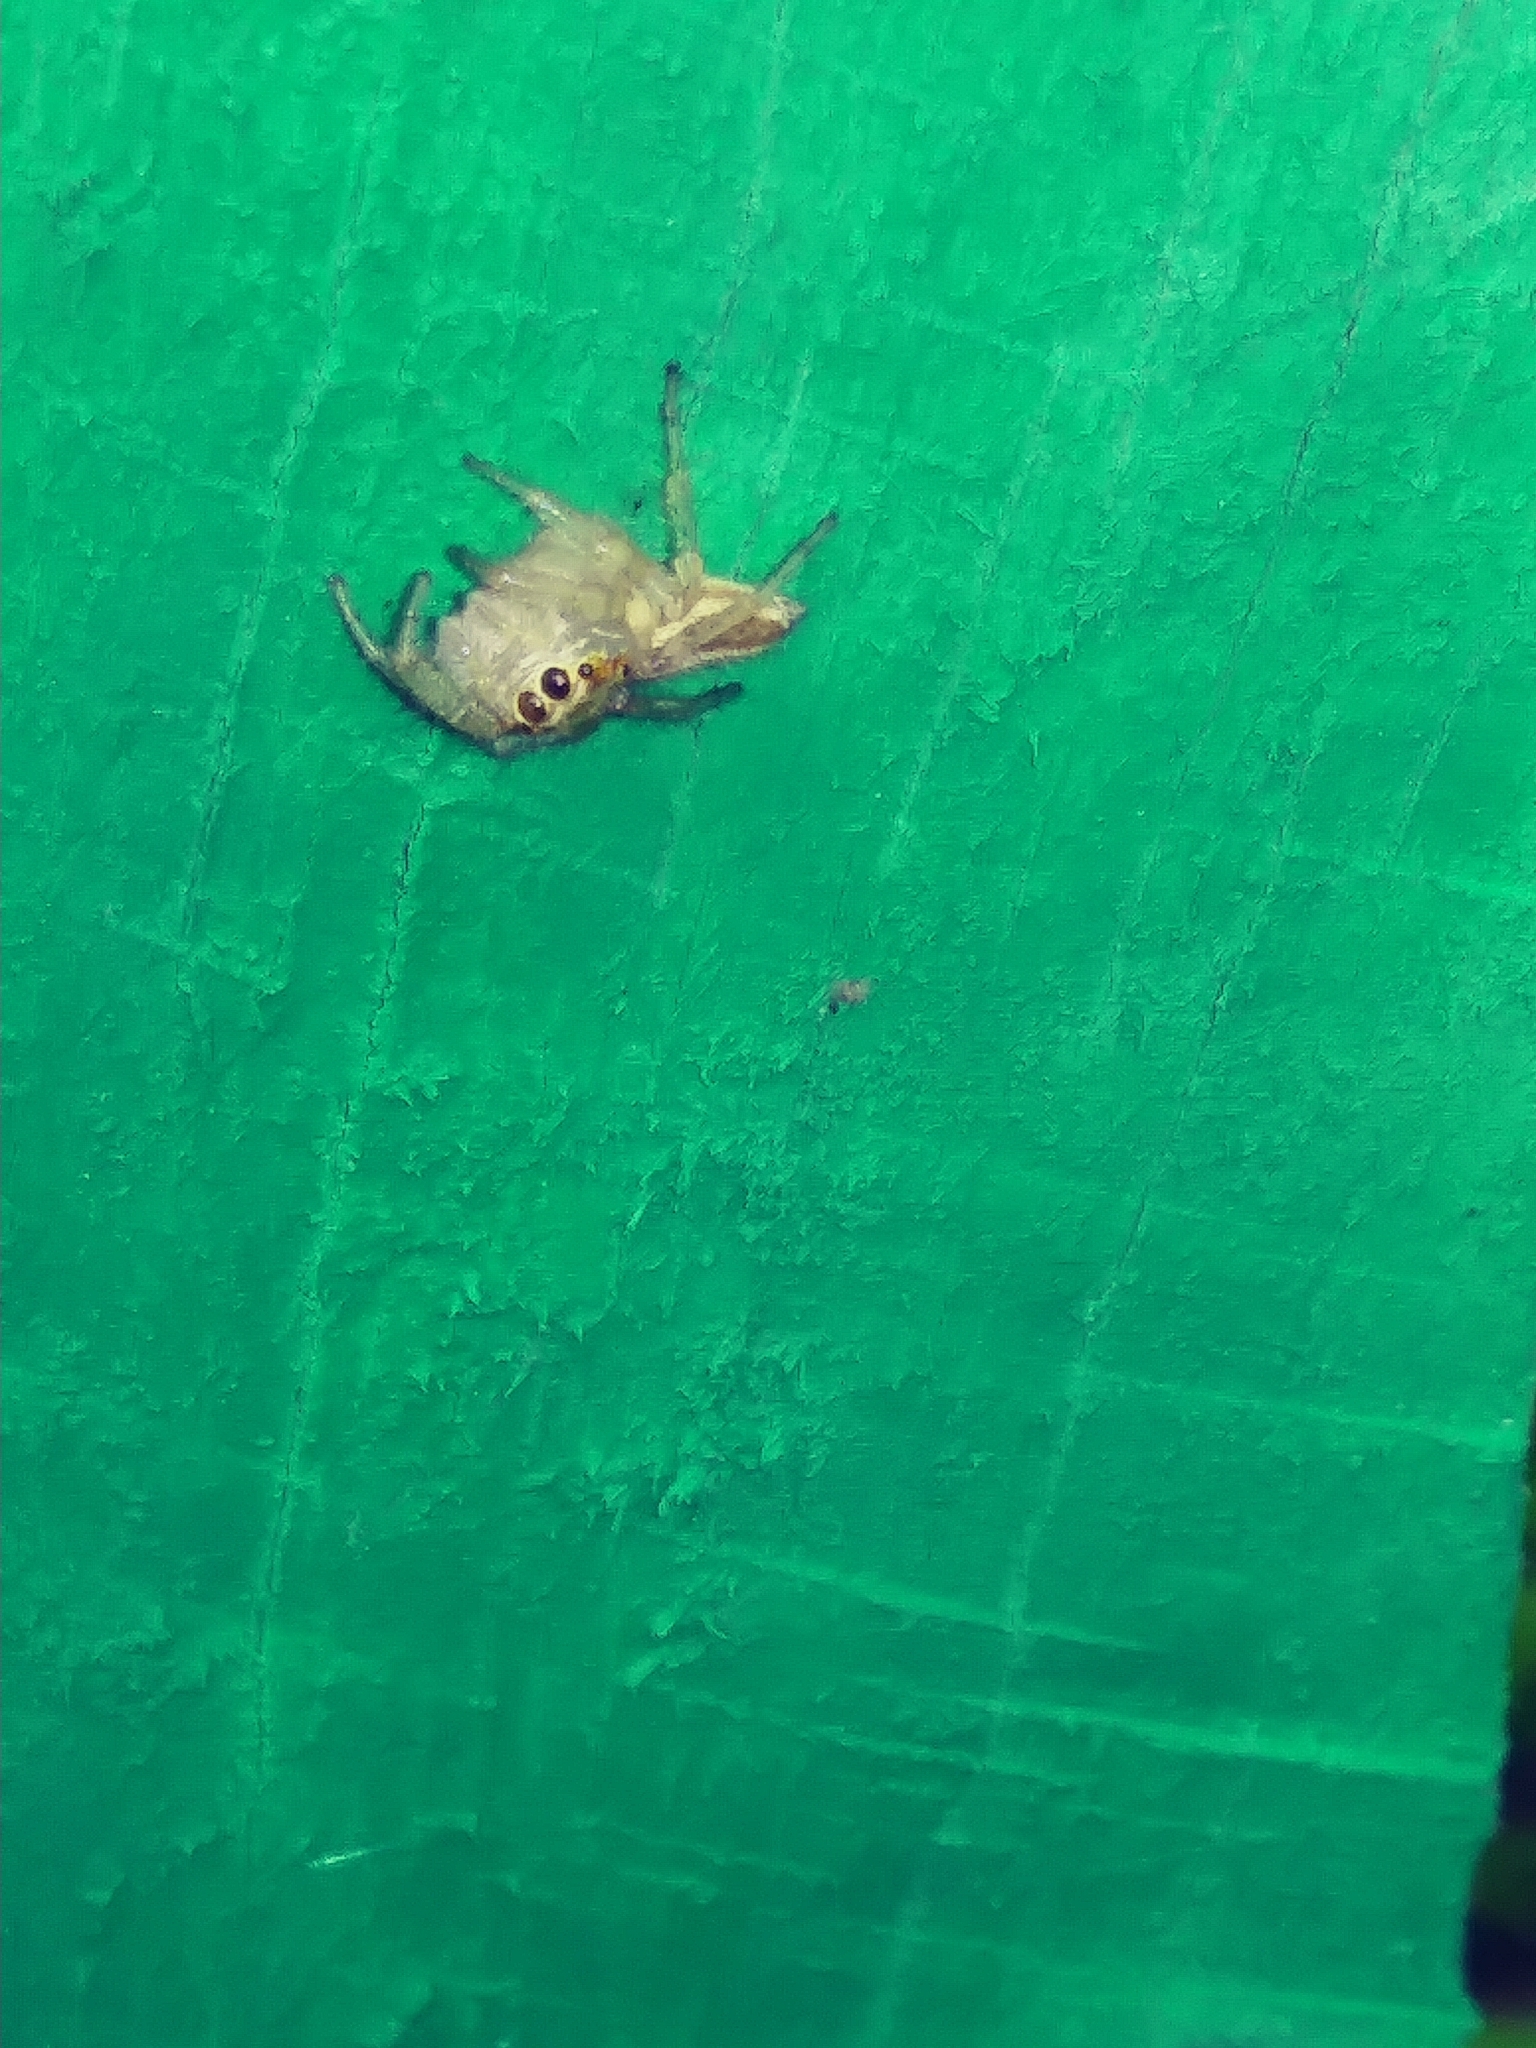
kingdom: Animalia
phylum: Arthropoda
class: Arachnida
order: Araneae
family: Salticidae
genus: Colonus
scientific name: Colonus sylvanus
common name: Jumping spiders
